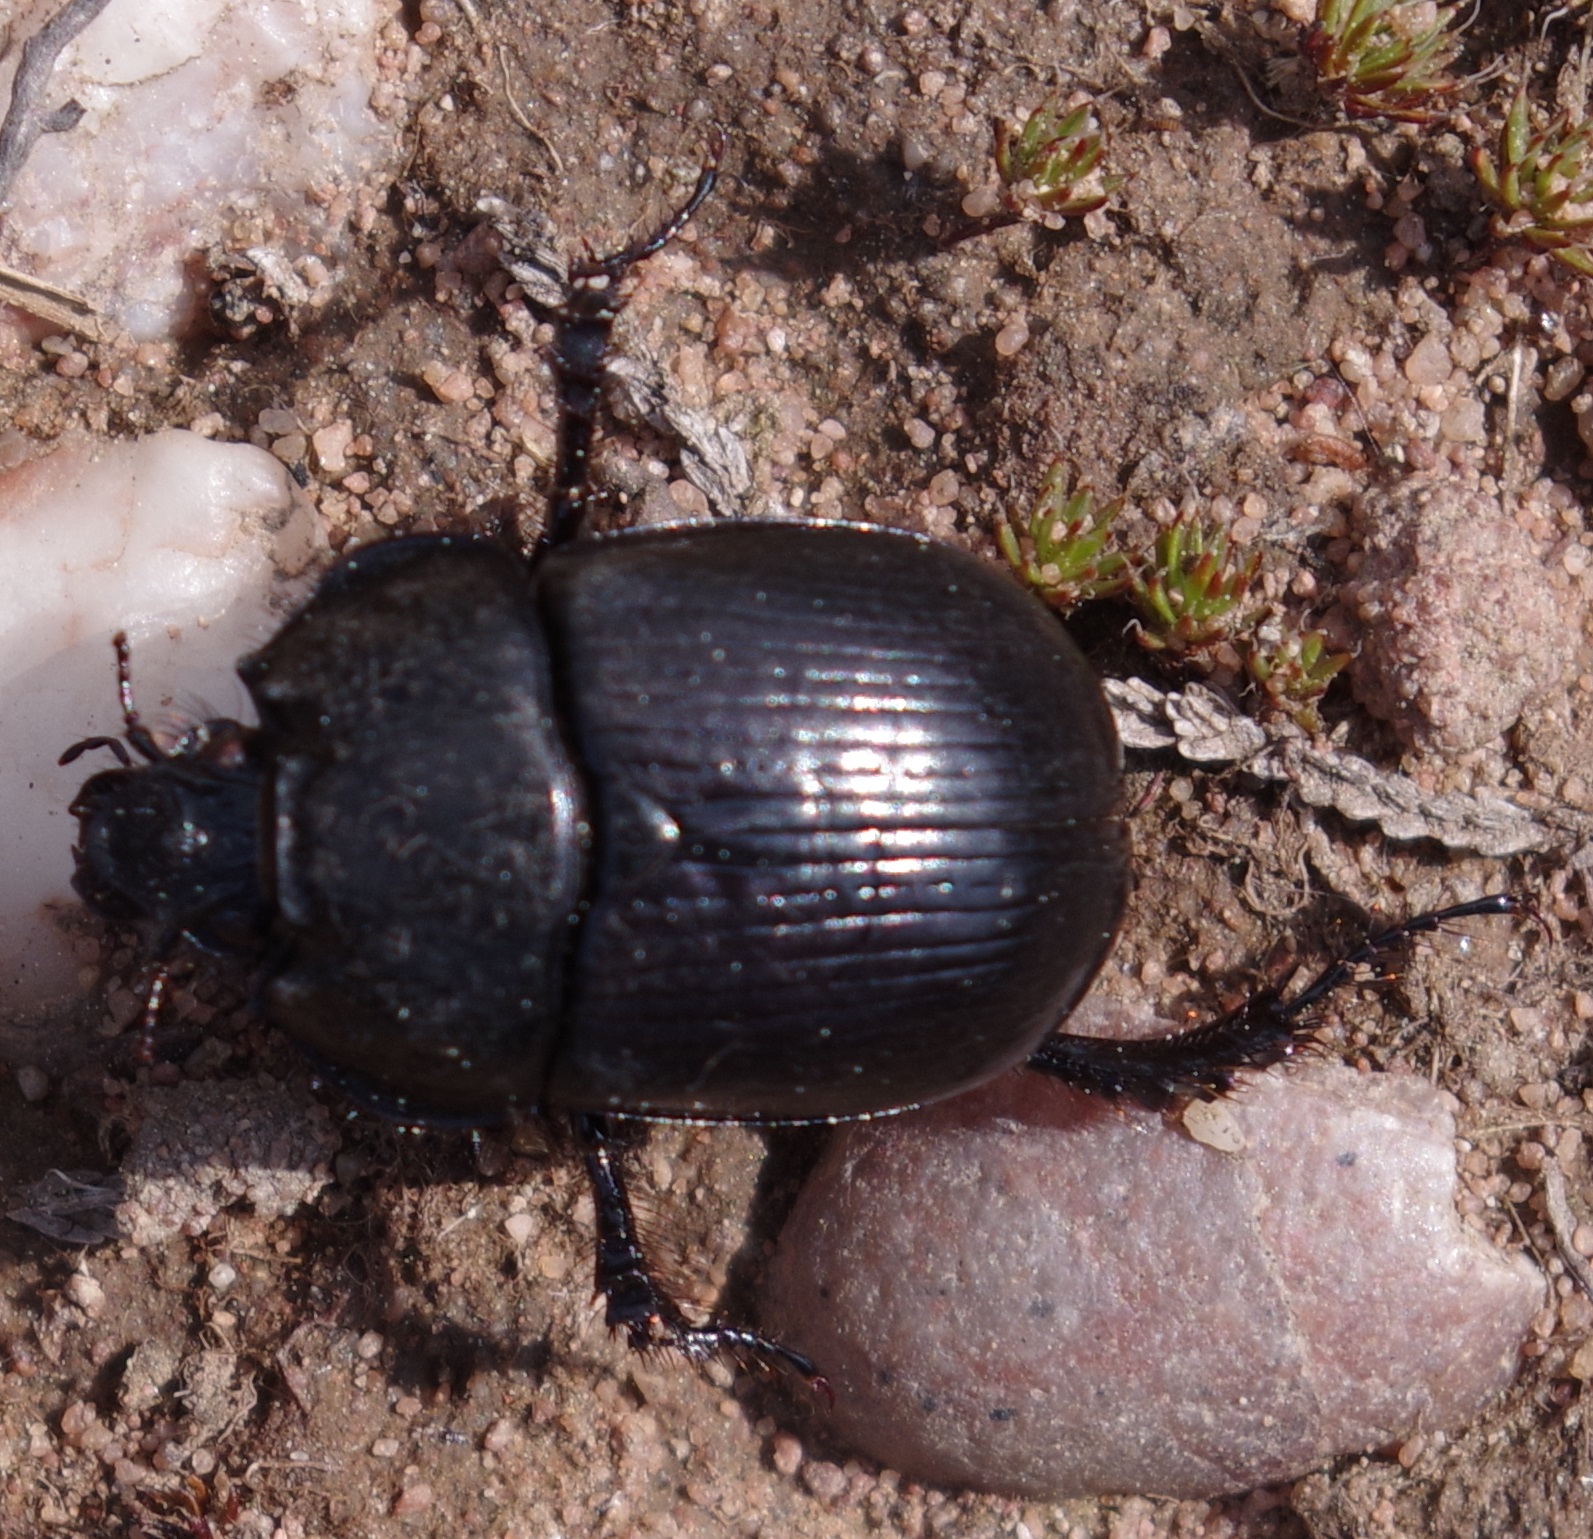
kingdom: Animalia
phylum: Arthropoda
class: Insecta
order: Coleoptera
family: Geotrupidae
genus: Anoplotrupes
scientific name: Anoplotrupes stercorosus
